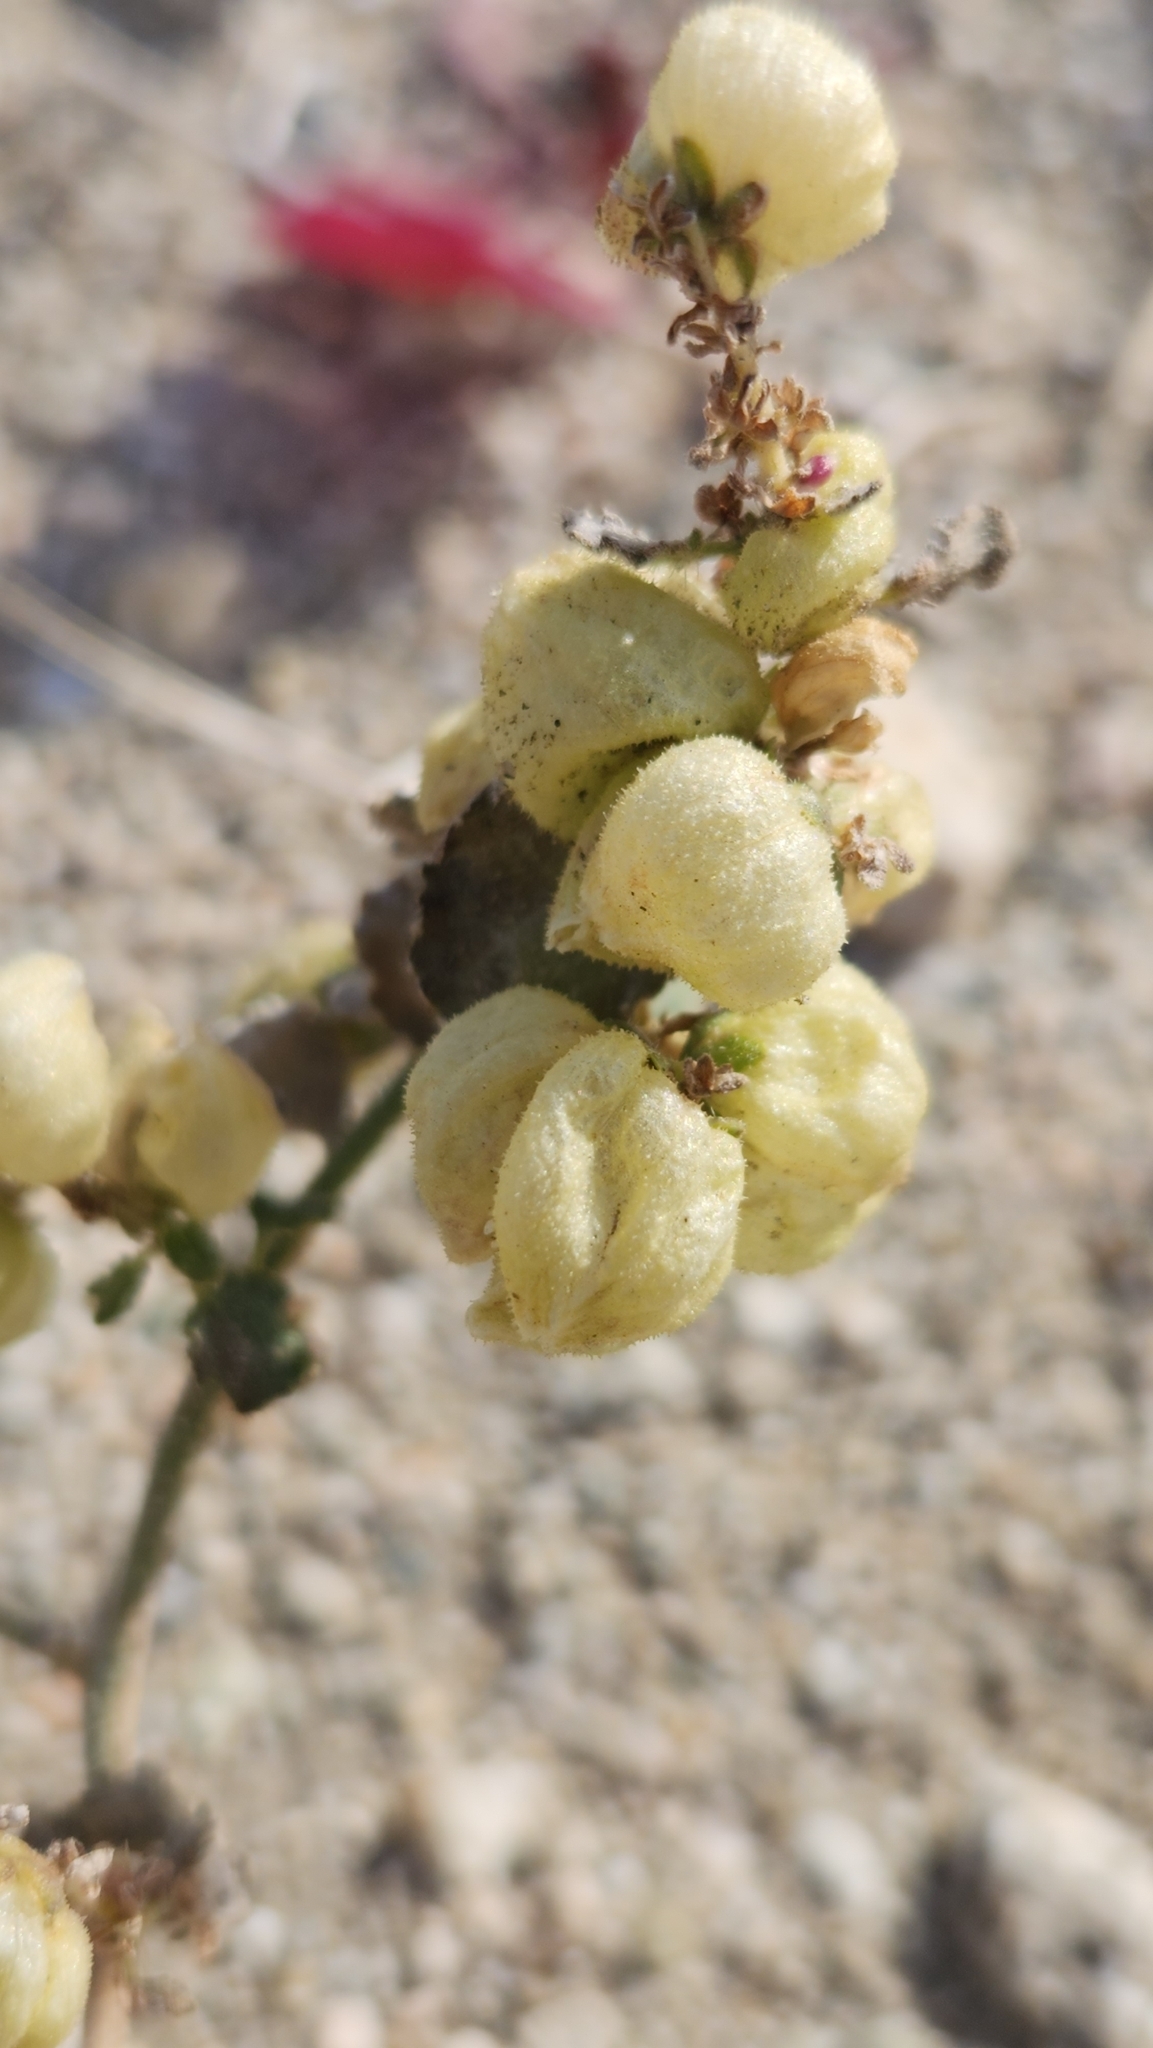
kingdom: Plantae
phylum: Tracheophyta
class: Magnoliopsida
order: Asterales
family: Asteraceae
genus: Dicoria
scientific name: Dicoria canescens
